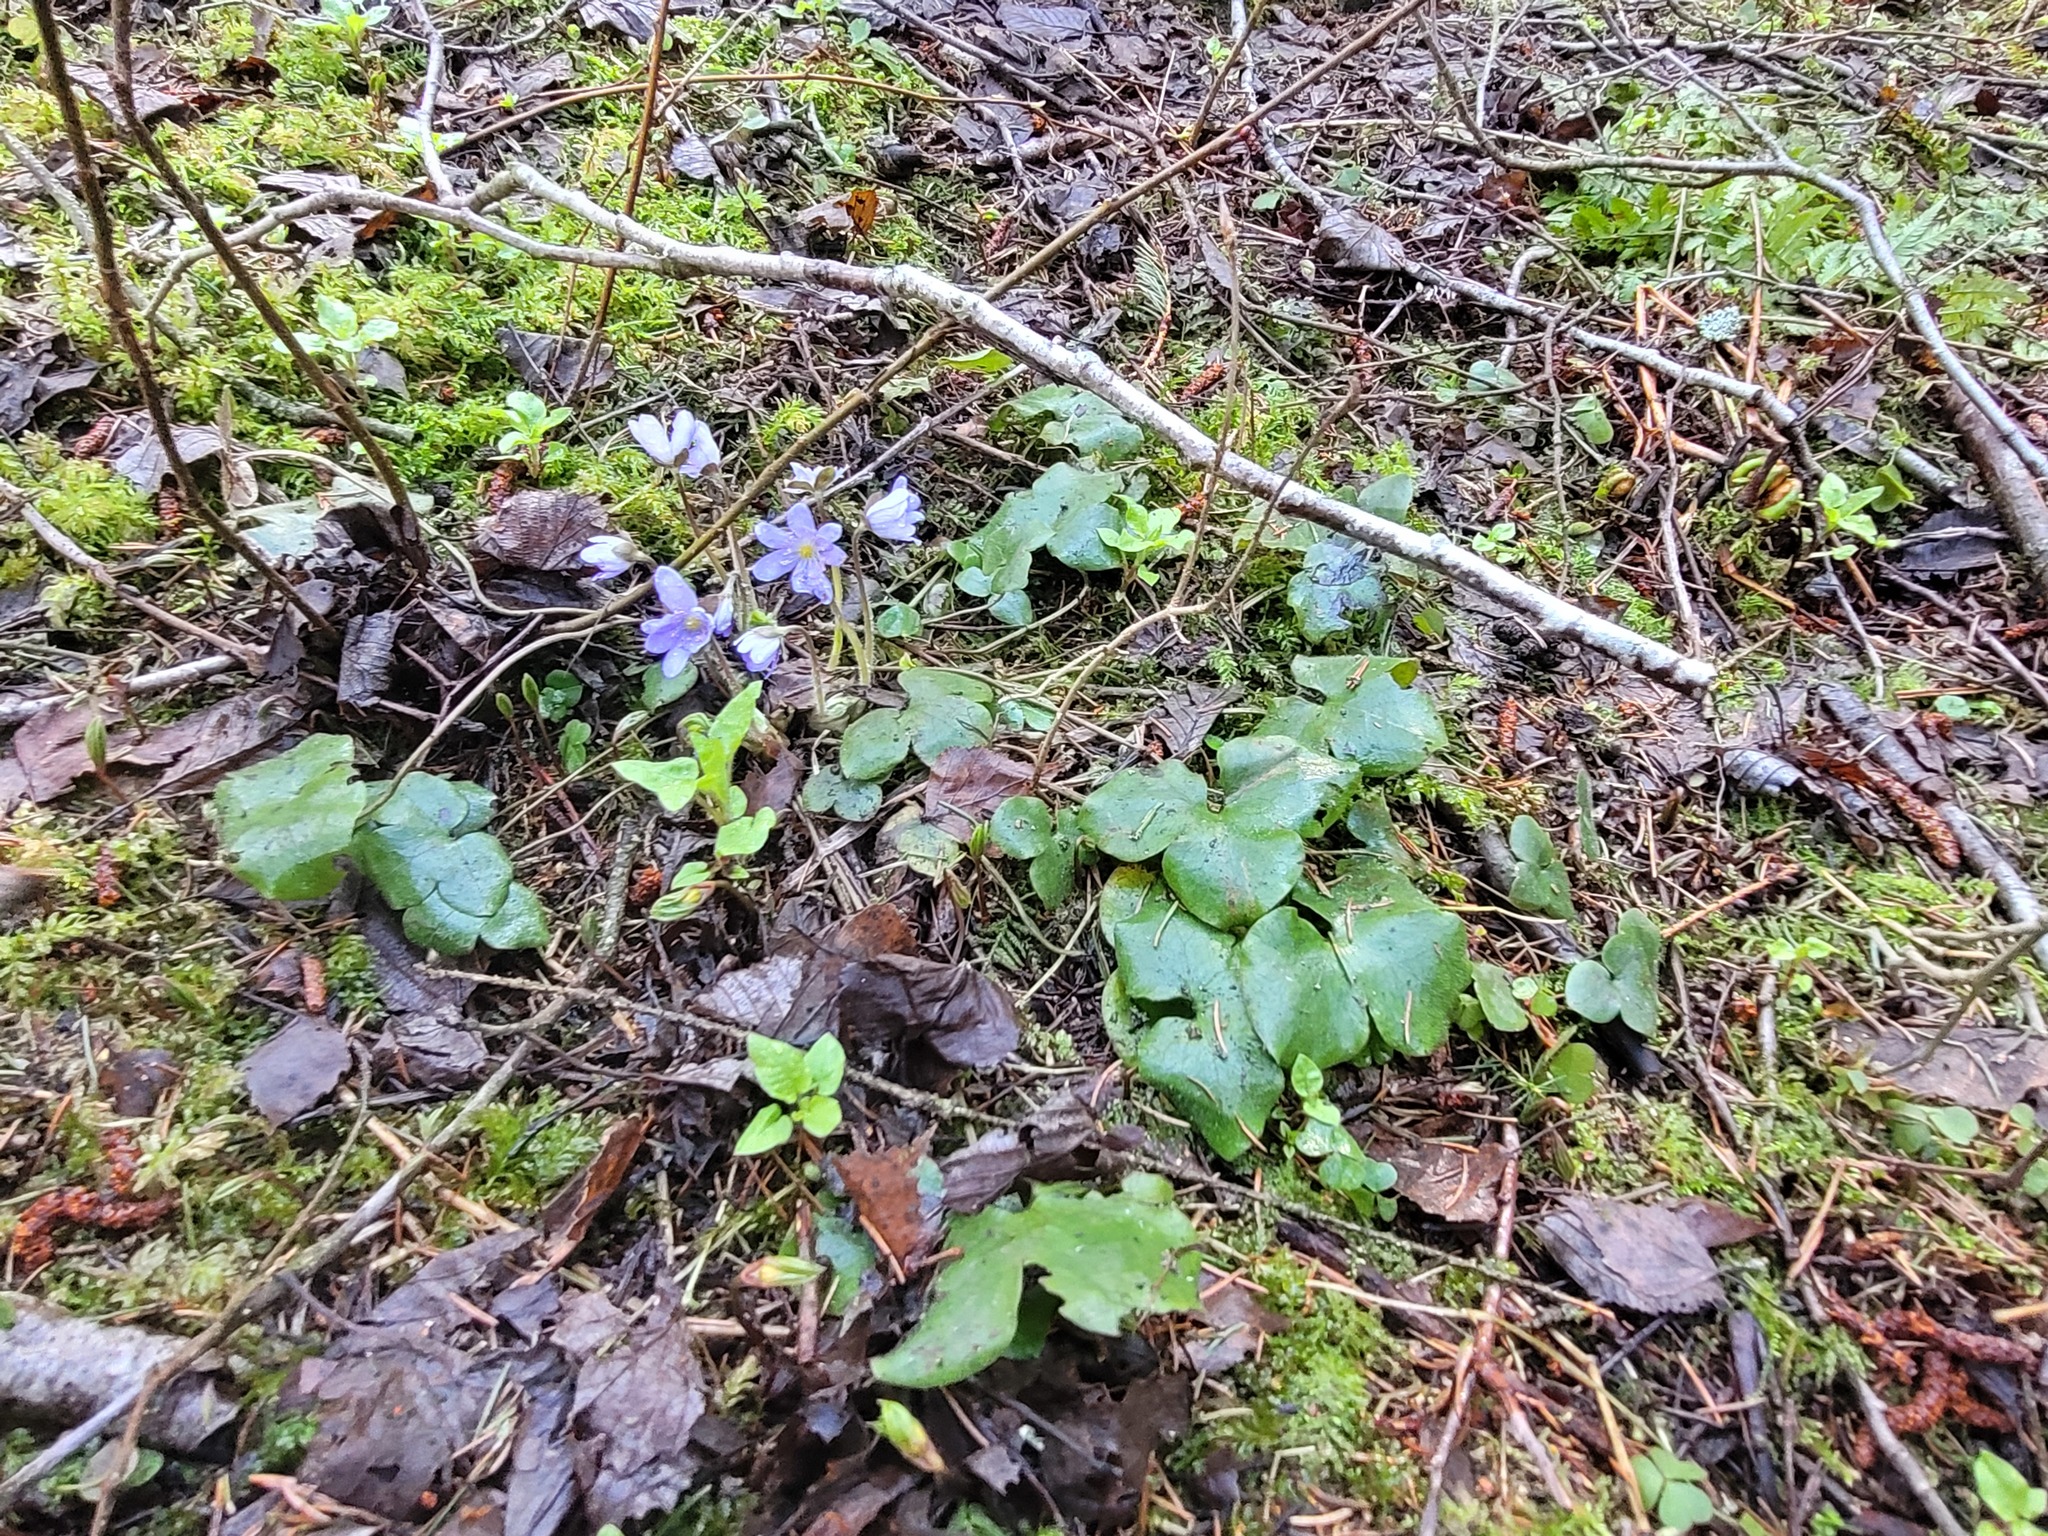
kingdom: Plantae
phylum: Tracheophyta
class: Magnoliopsida
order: Ranunculales
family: Ranunculaceae
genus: Hepatica
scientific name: Hepatica nobilis
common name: Liverleaf
